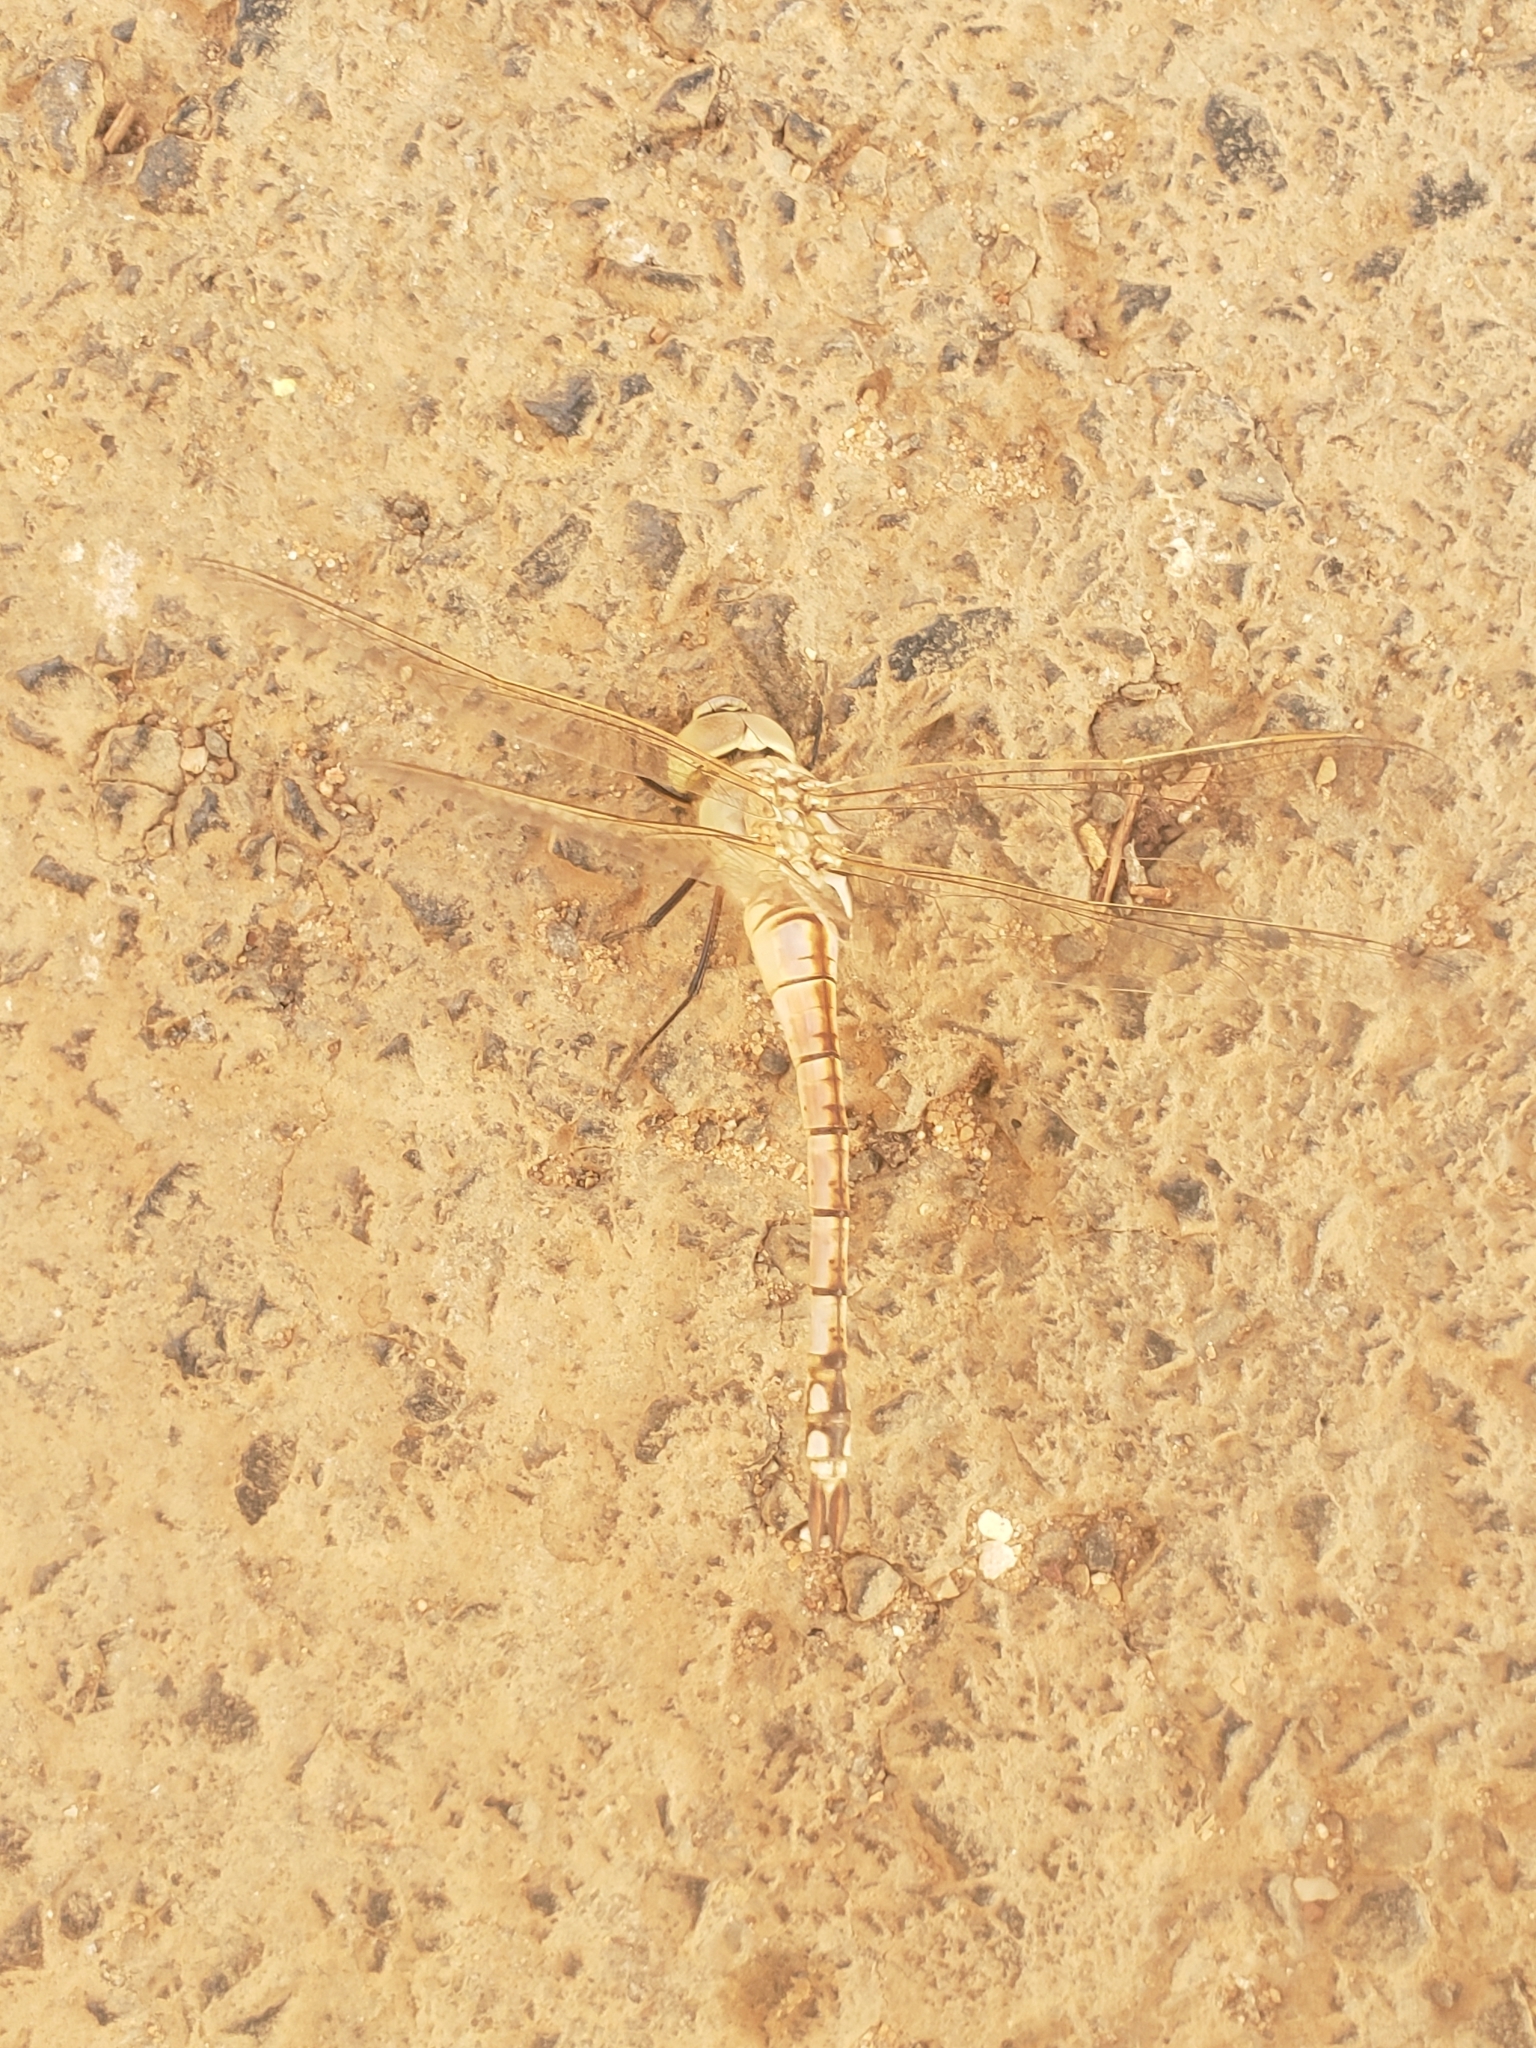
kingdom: Animalia
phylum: Arthropoda
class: Insecta
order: Odonata
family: Aeshnidae
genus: Anax
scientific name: Anax ephippiger
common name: Vagrant emperor
